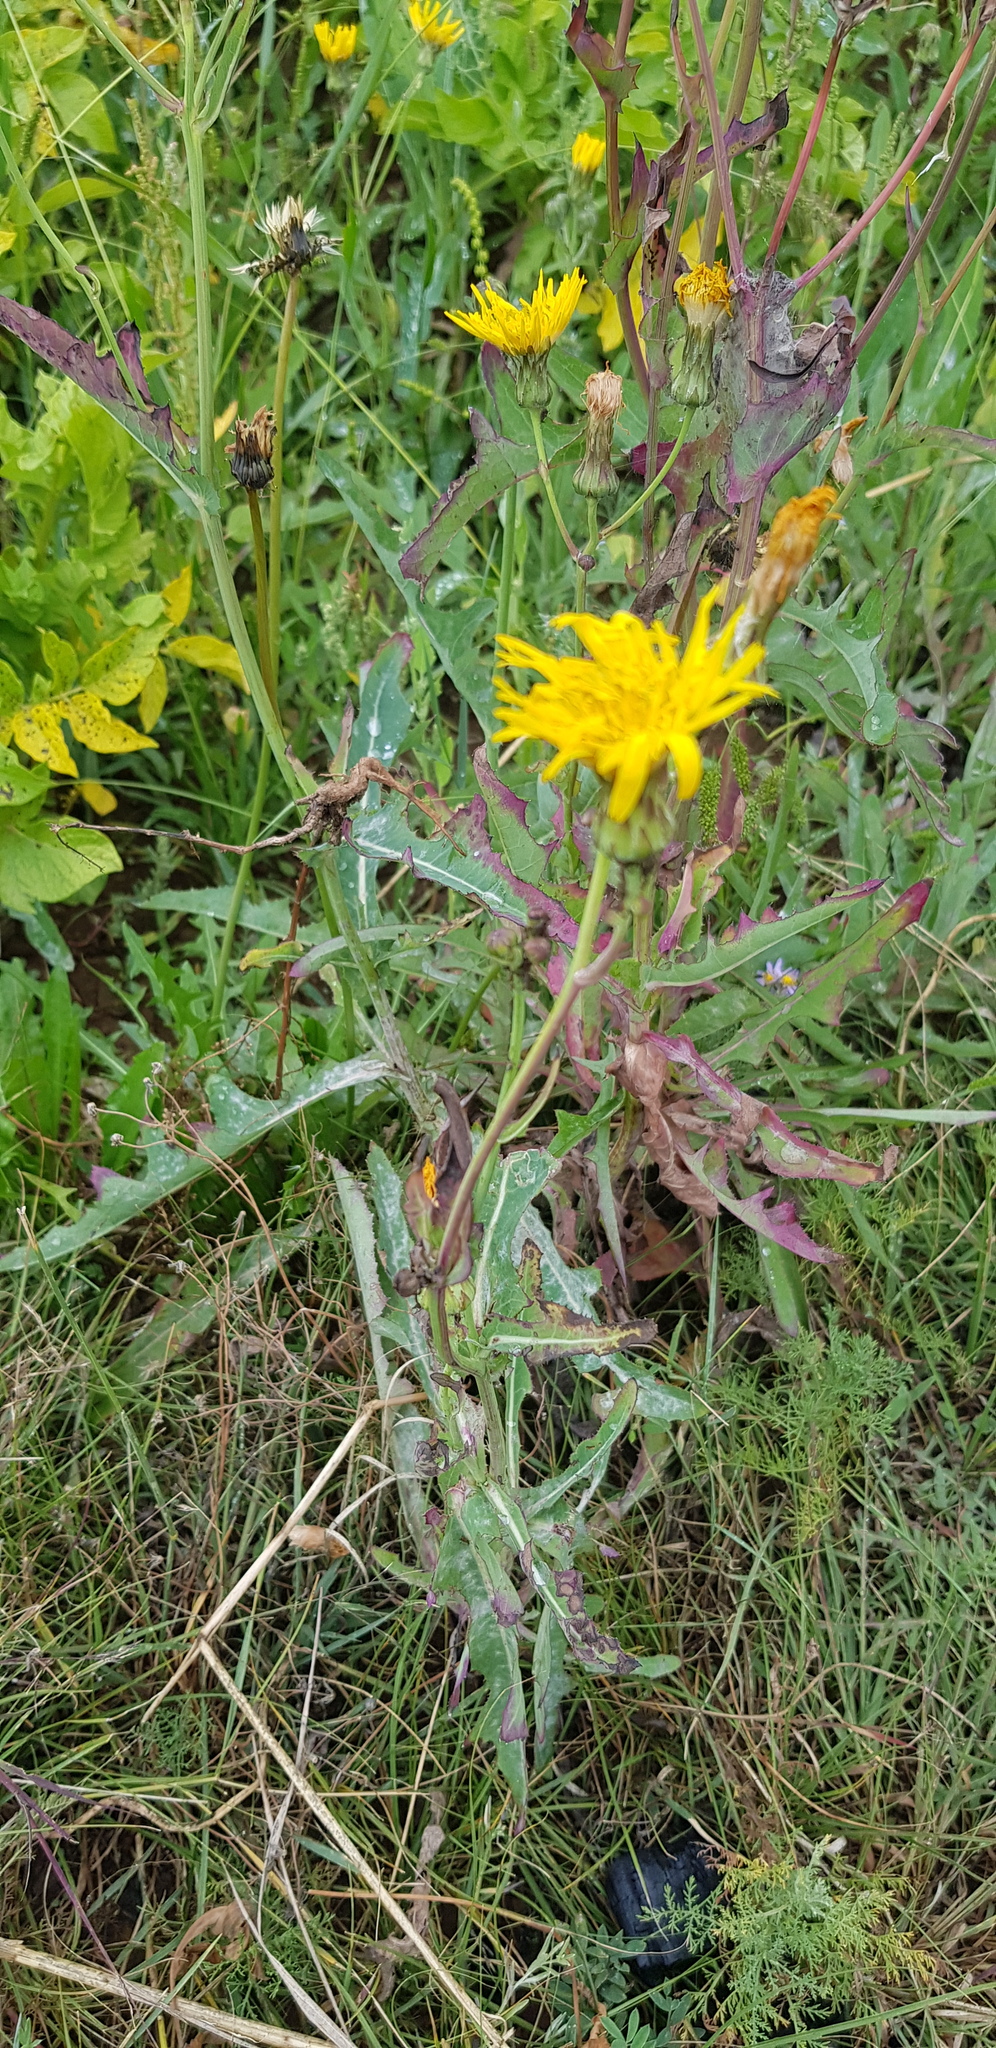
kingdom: Plantae
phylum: Tracheophyta
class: Magnoliopsida
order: Asterales
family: Asteraceae
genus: Sonchus
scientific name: Sonchus arvensis
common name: Perennial sow-thistle
